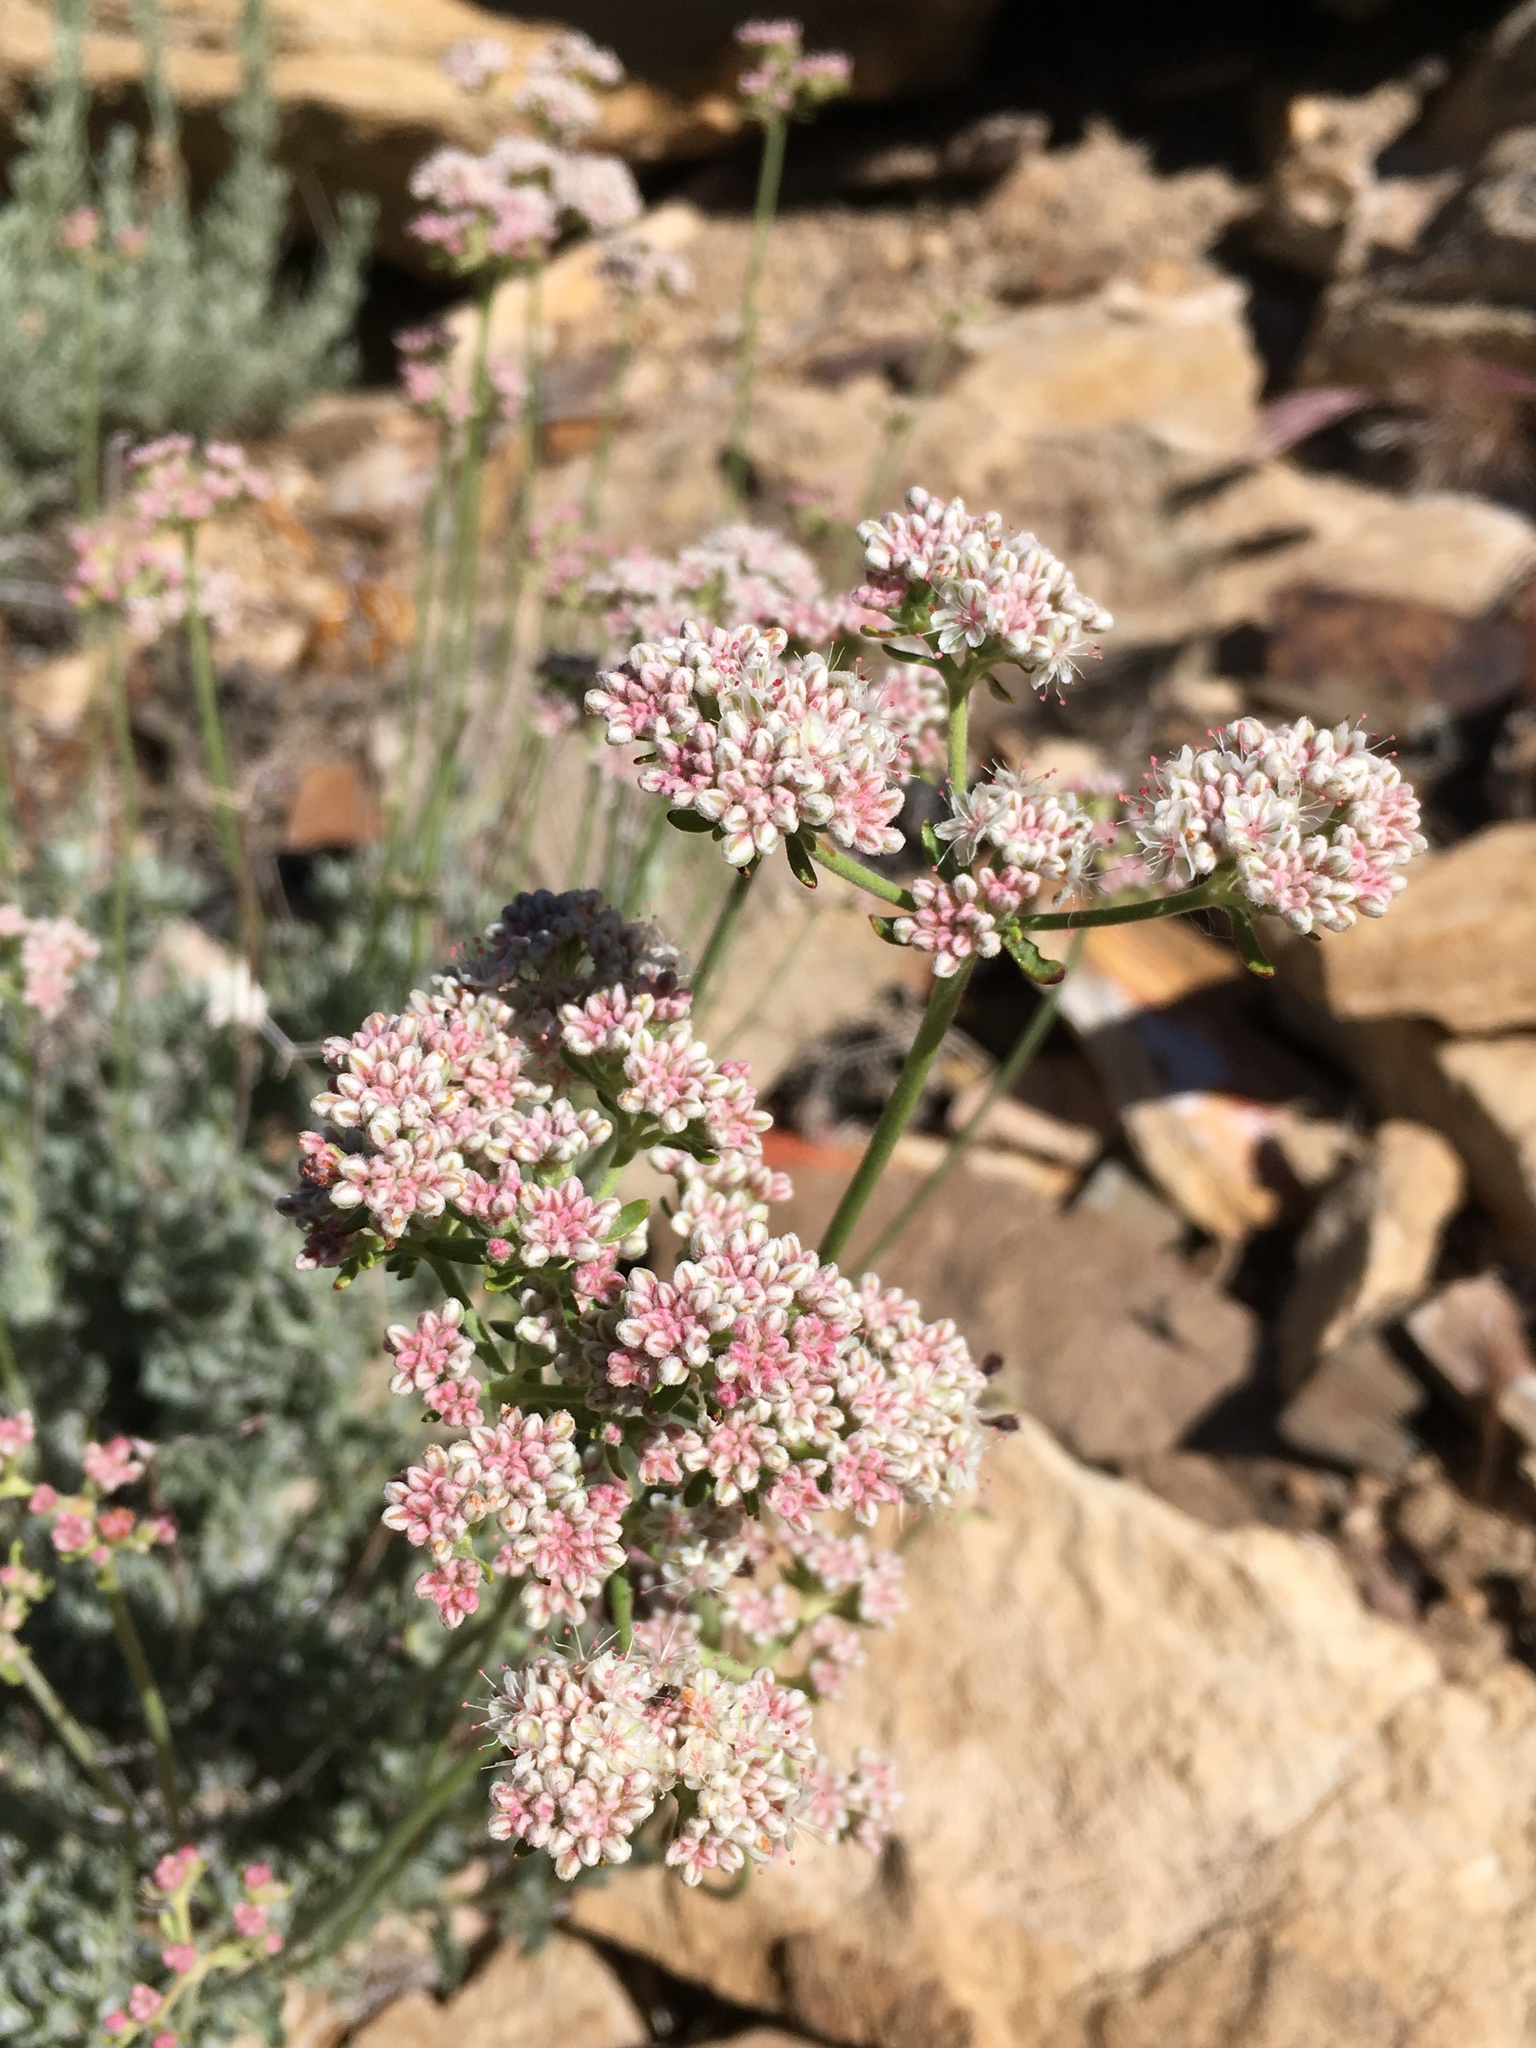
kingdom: Plantae
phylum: Tracheophyta
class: Magnoliopsida
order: Caryophyllales
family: Polygonaceae
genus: Eriogonum
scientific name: Eriogonum fasciculatum
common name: California wild buckwheat
